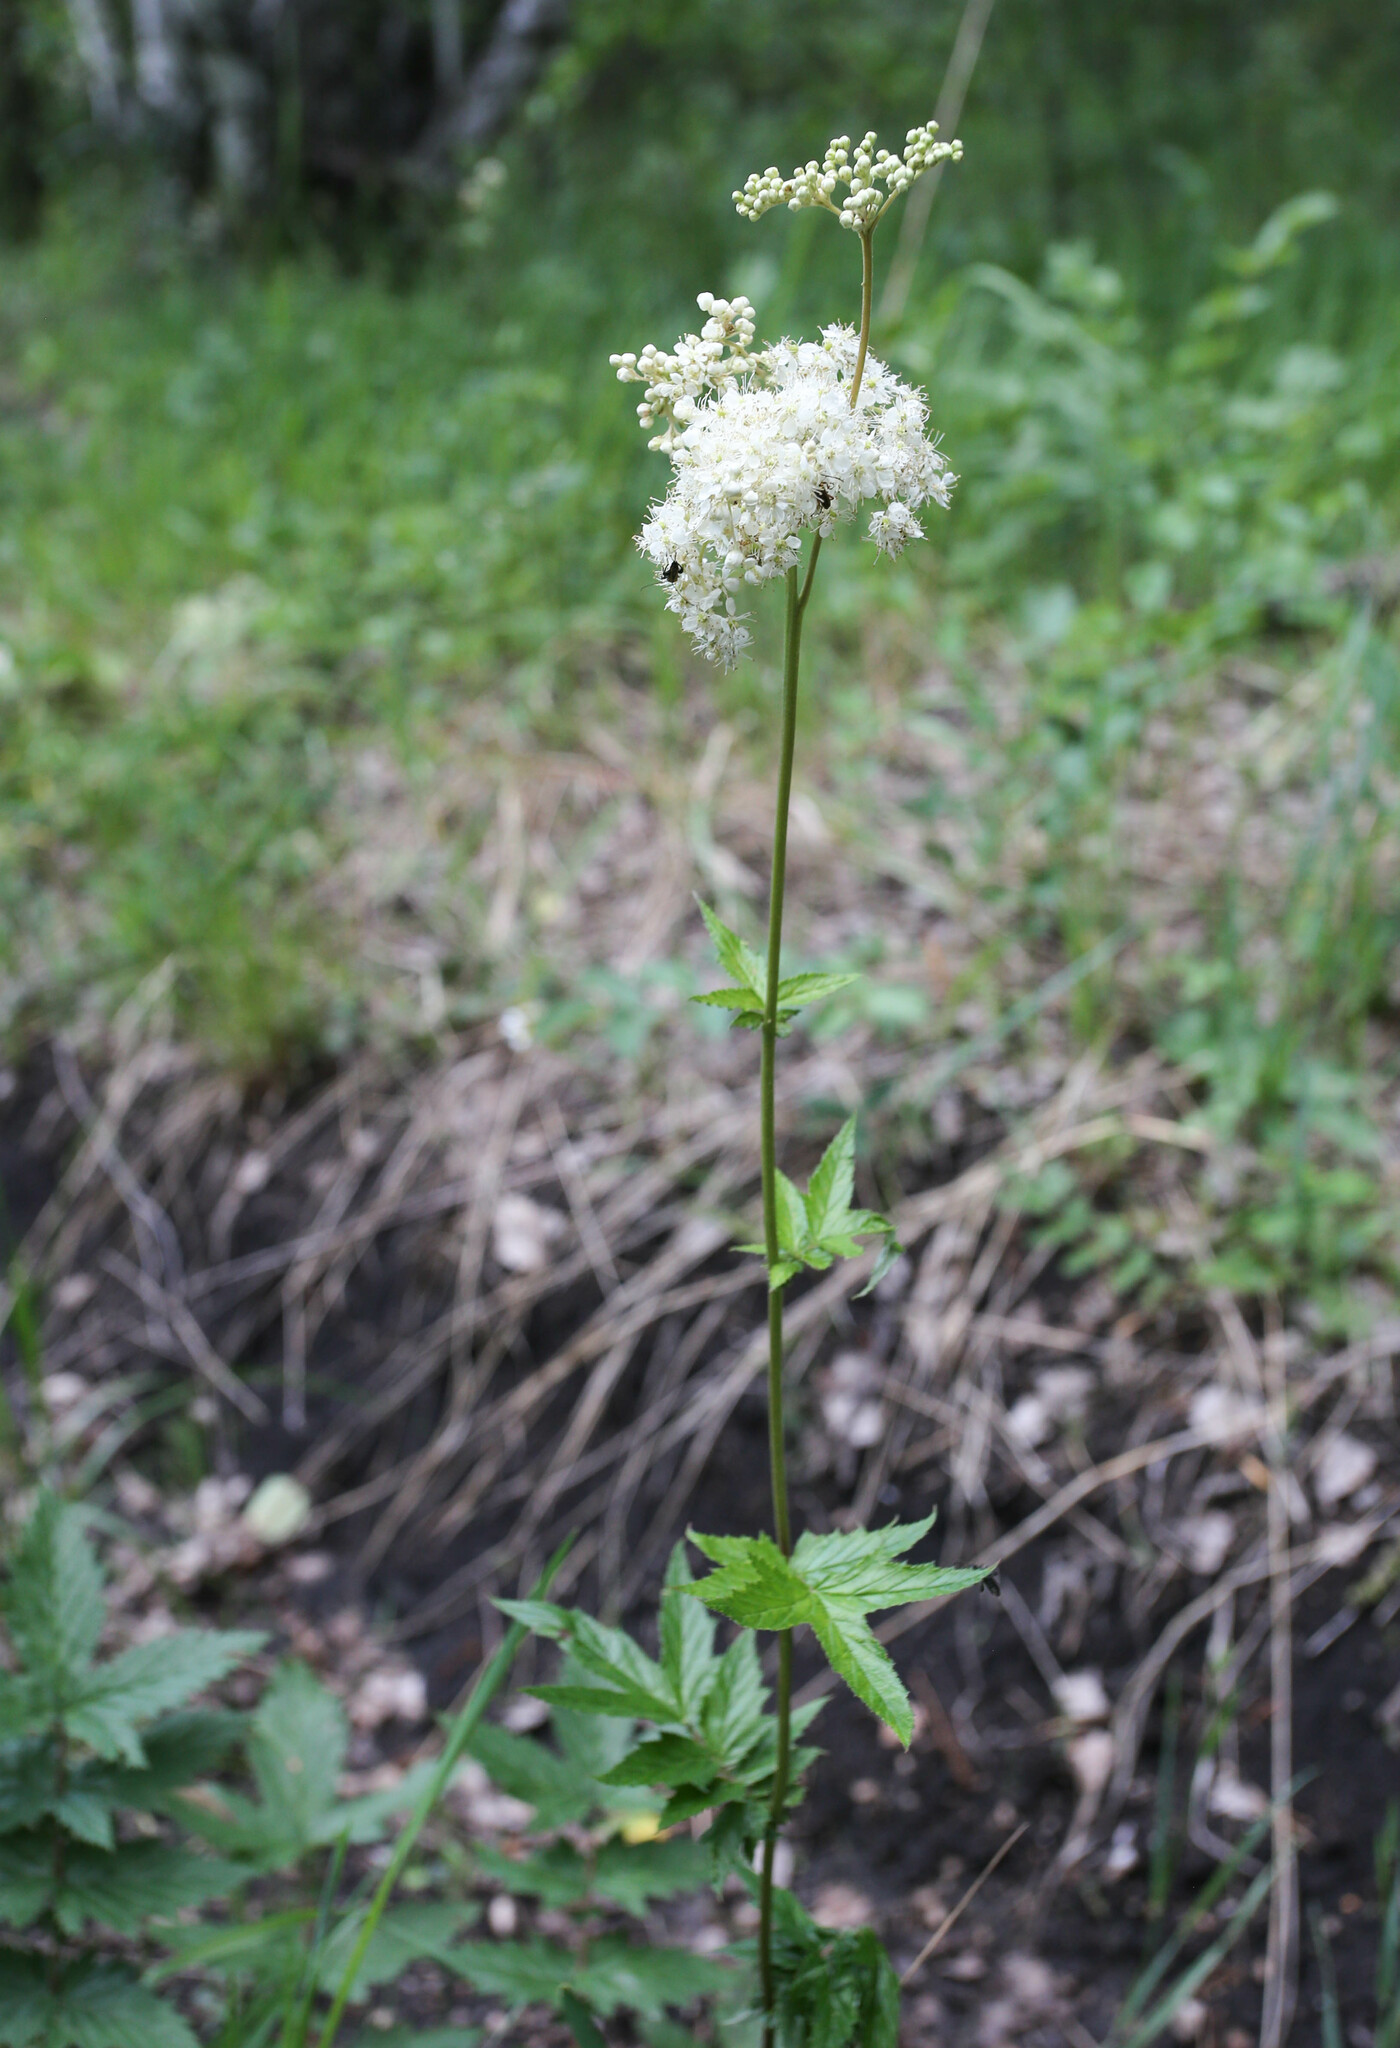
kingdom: Plantae
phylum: Tracheophyta
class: Magnoliopsida
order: Rosales
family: Rosaceae
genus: Filipendula
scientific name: Filipendula ulmaria
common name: Meadowsweet
